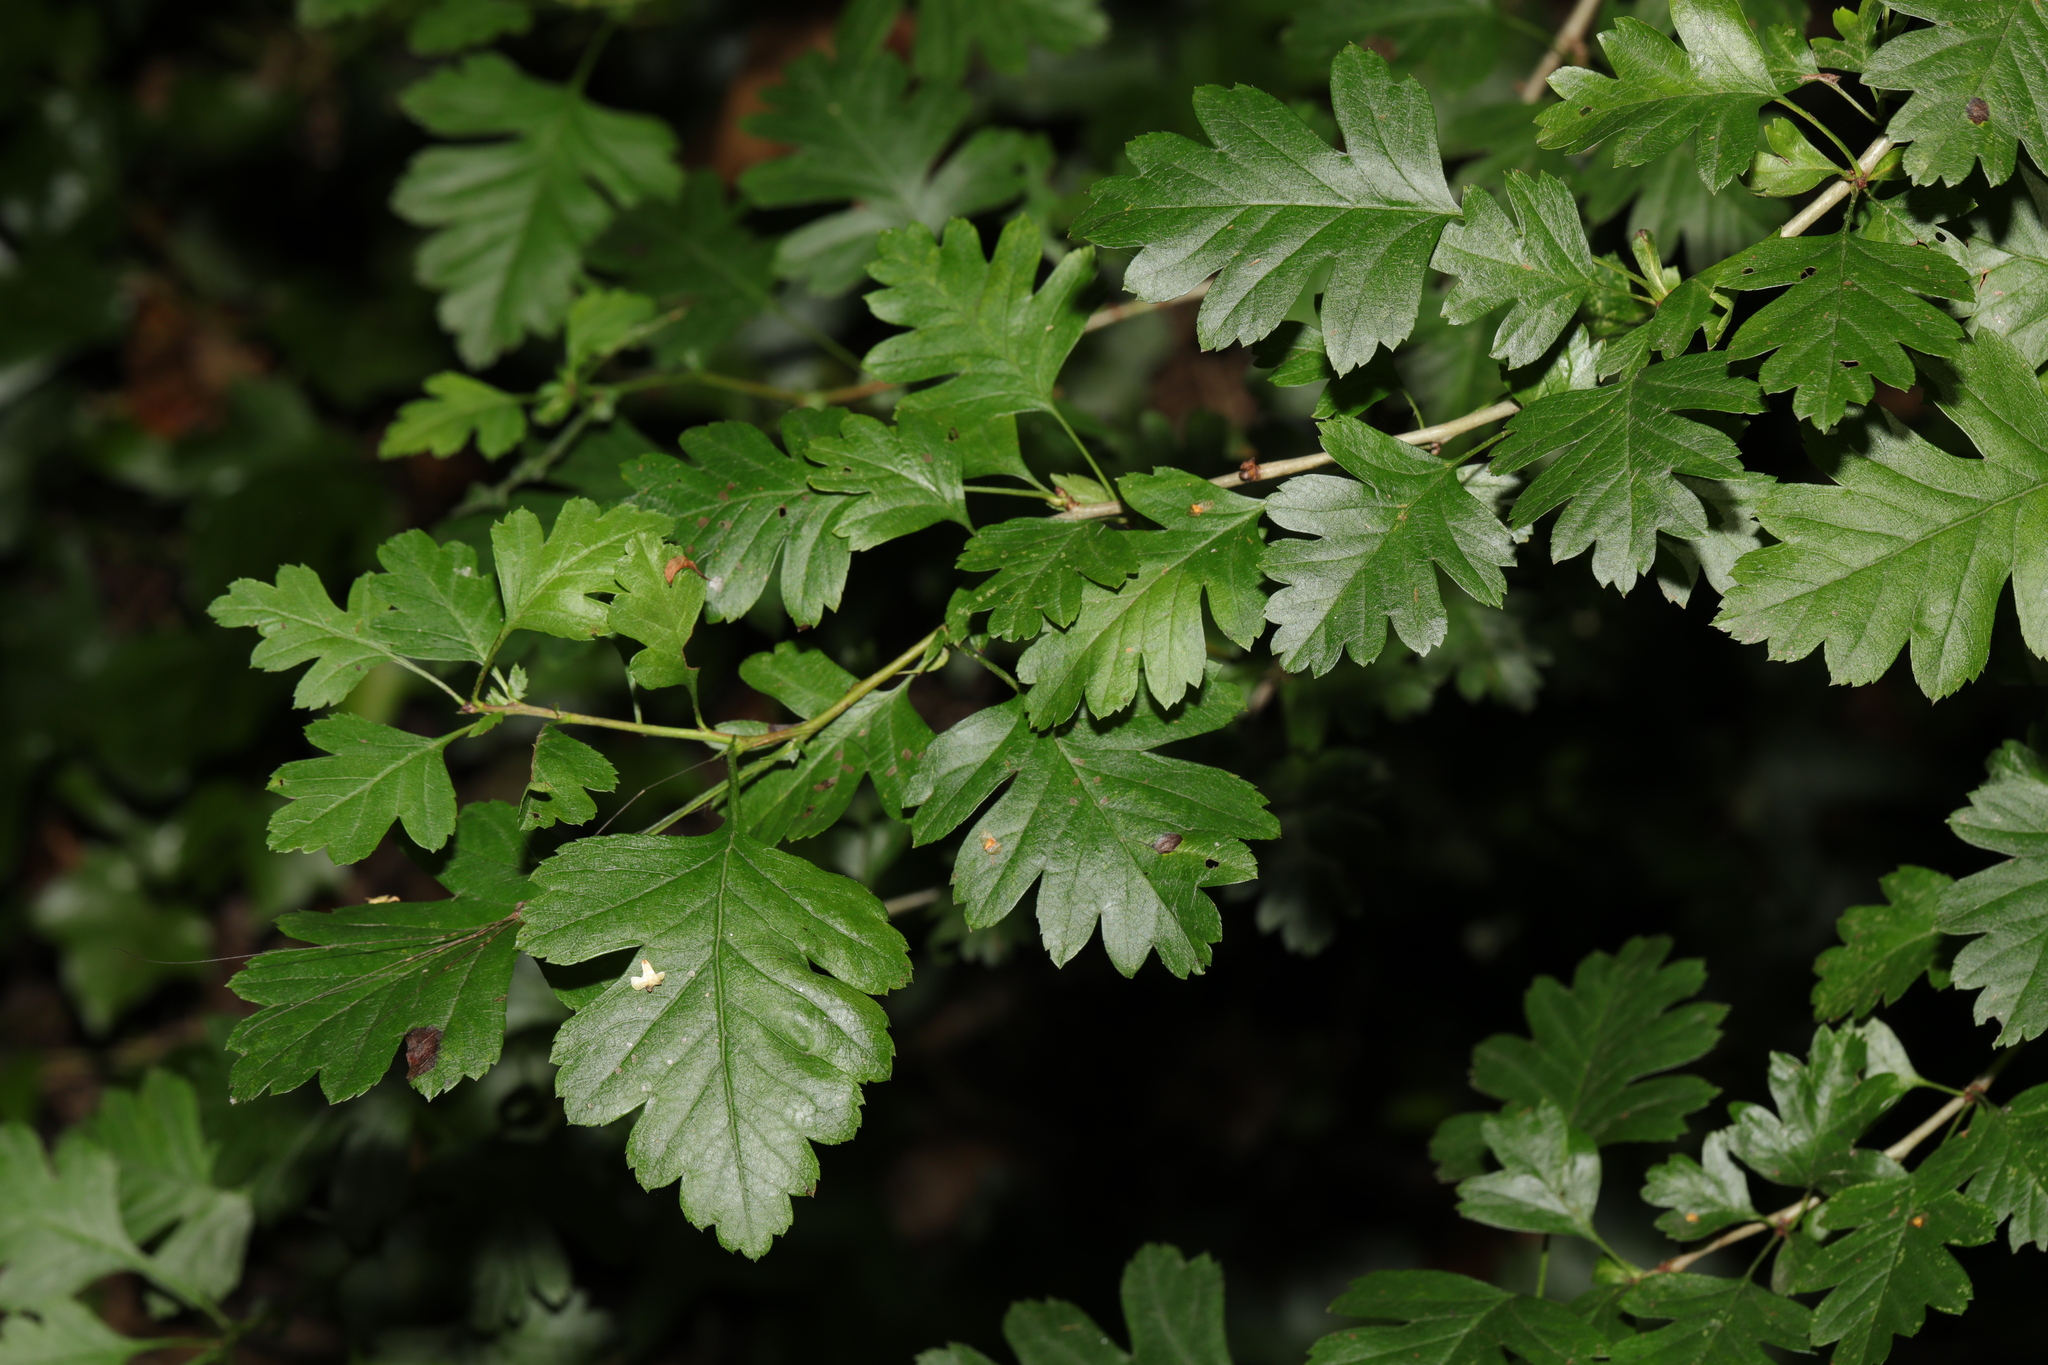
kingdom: Plantae
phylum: Tracheophyta
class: Magnoliopsida
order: Rosales
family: Rosaceae
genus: Crataegus
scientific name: Crataegus monogyna
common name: Hawthorn
